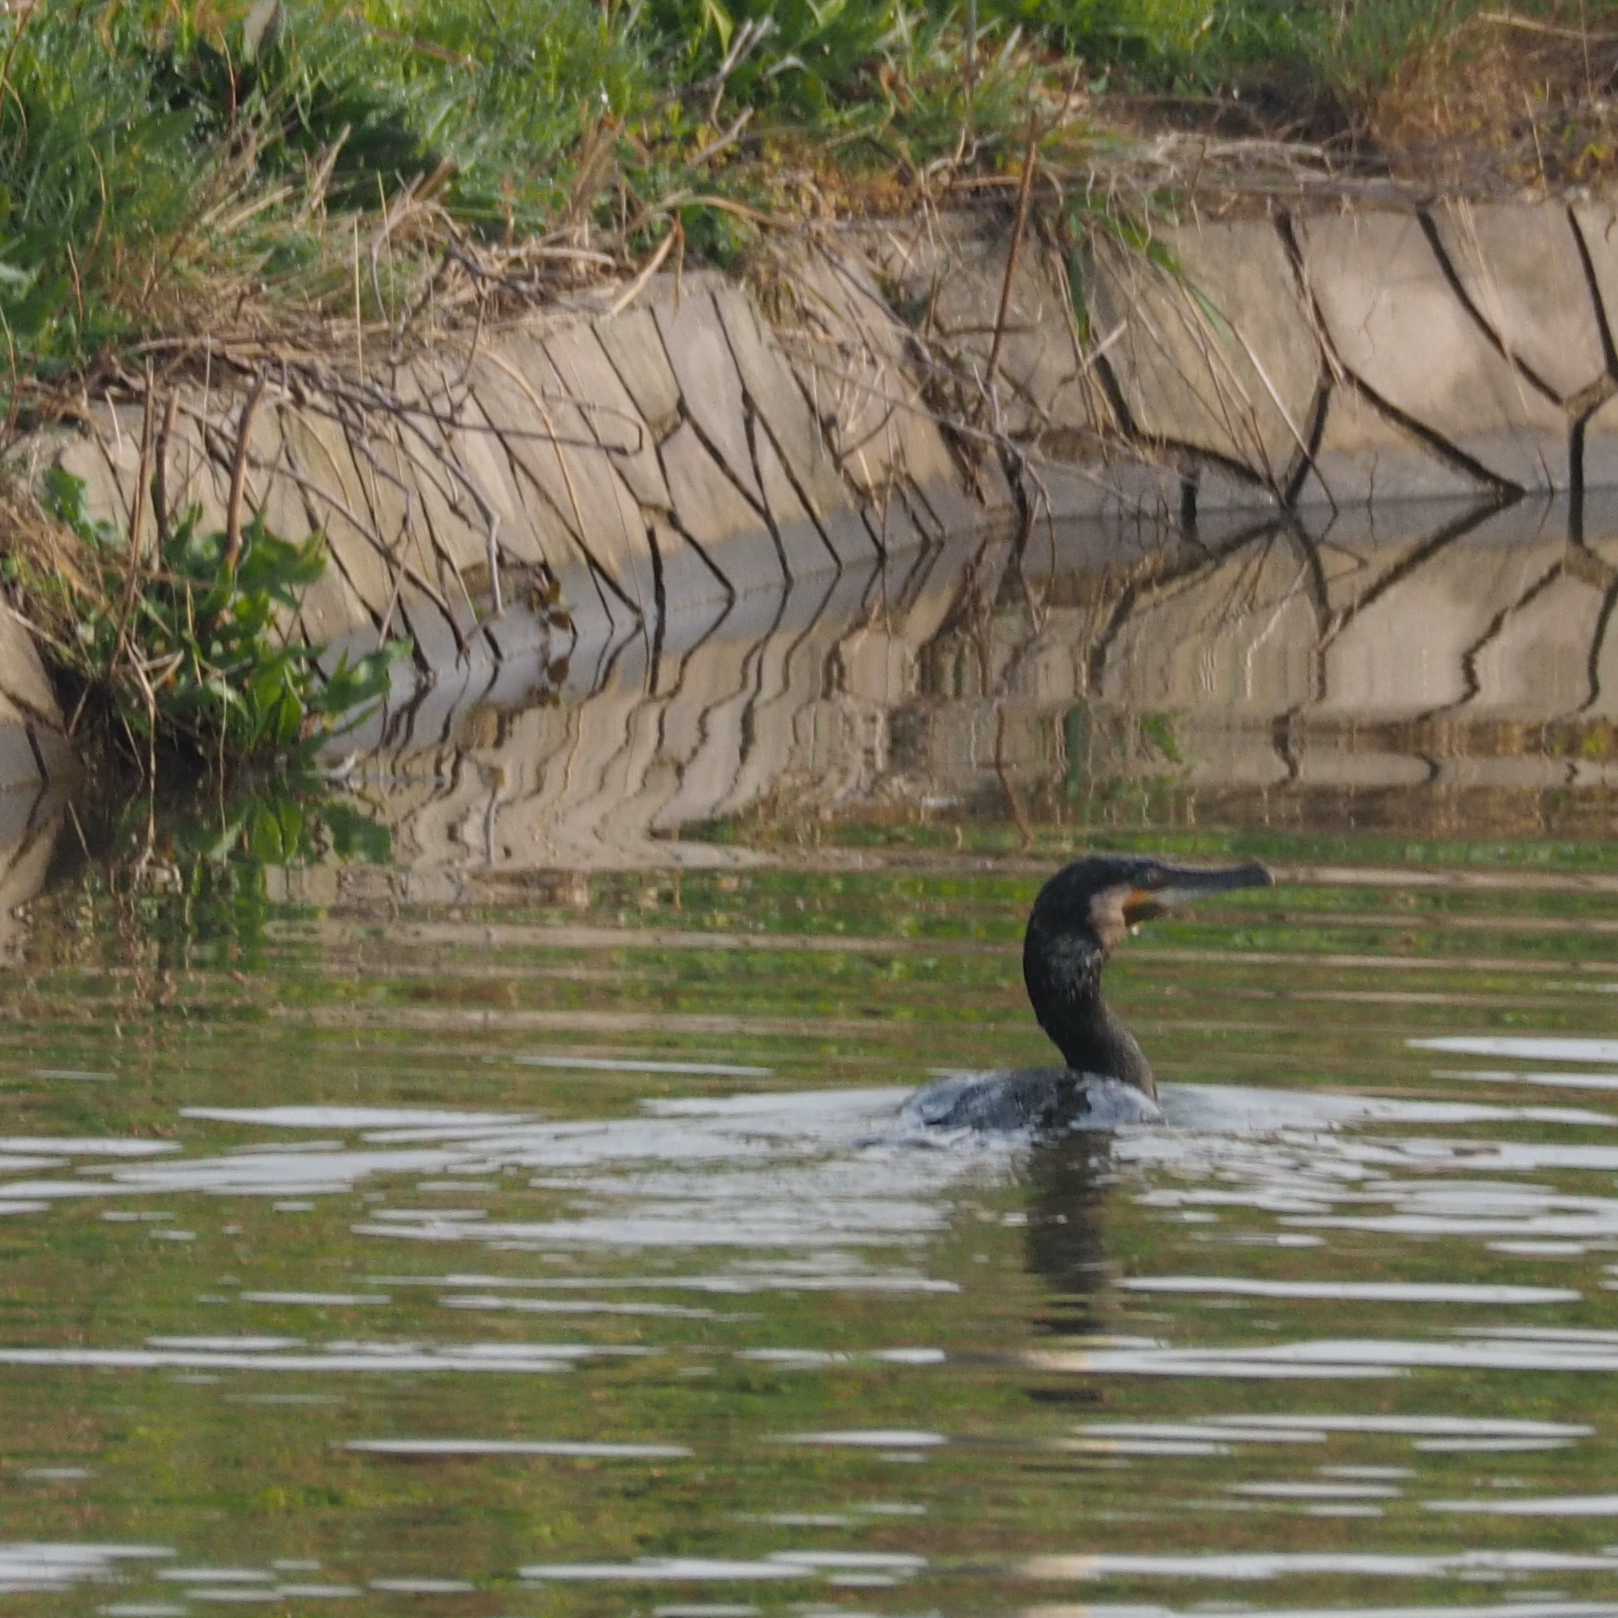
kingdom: Animalia
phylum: Chordata
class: Aves
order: Suliformes
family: Phalacrocoracidae
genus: Phalacrocorax
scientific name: Phalacrocorax carbo
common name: Great cormorant
